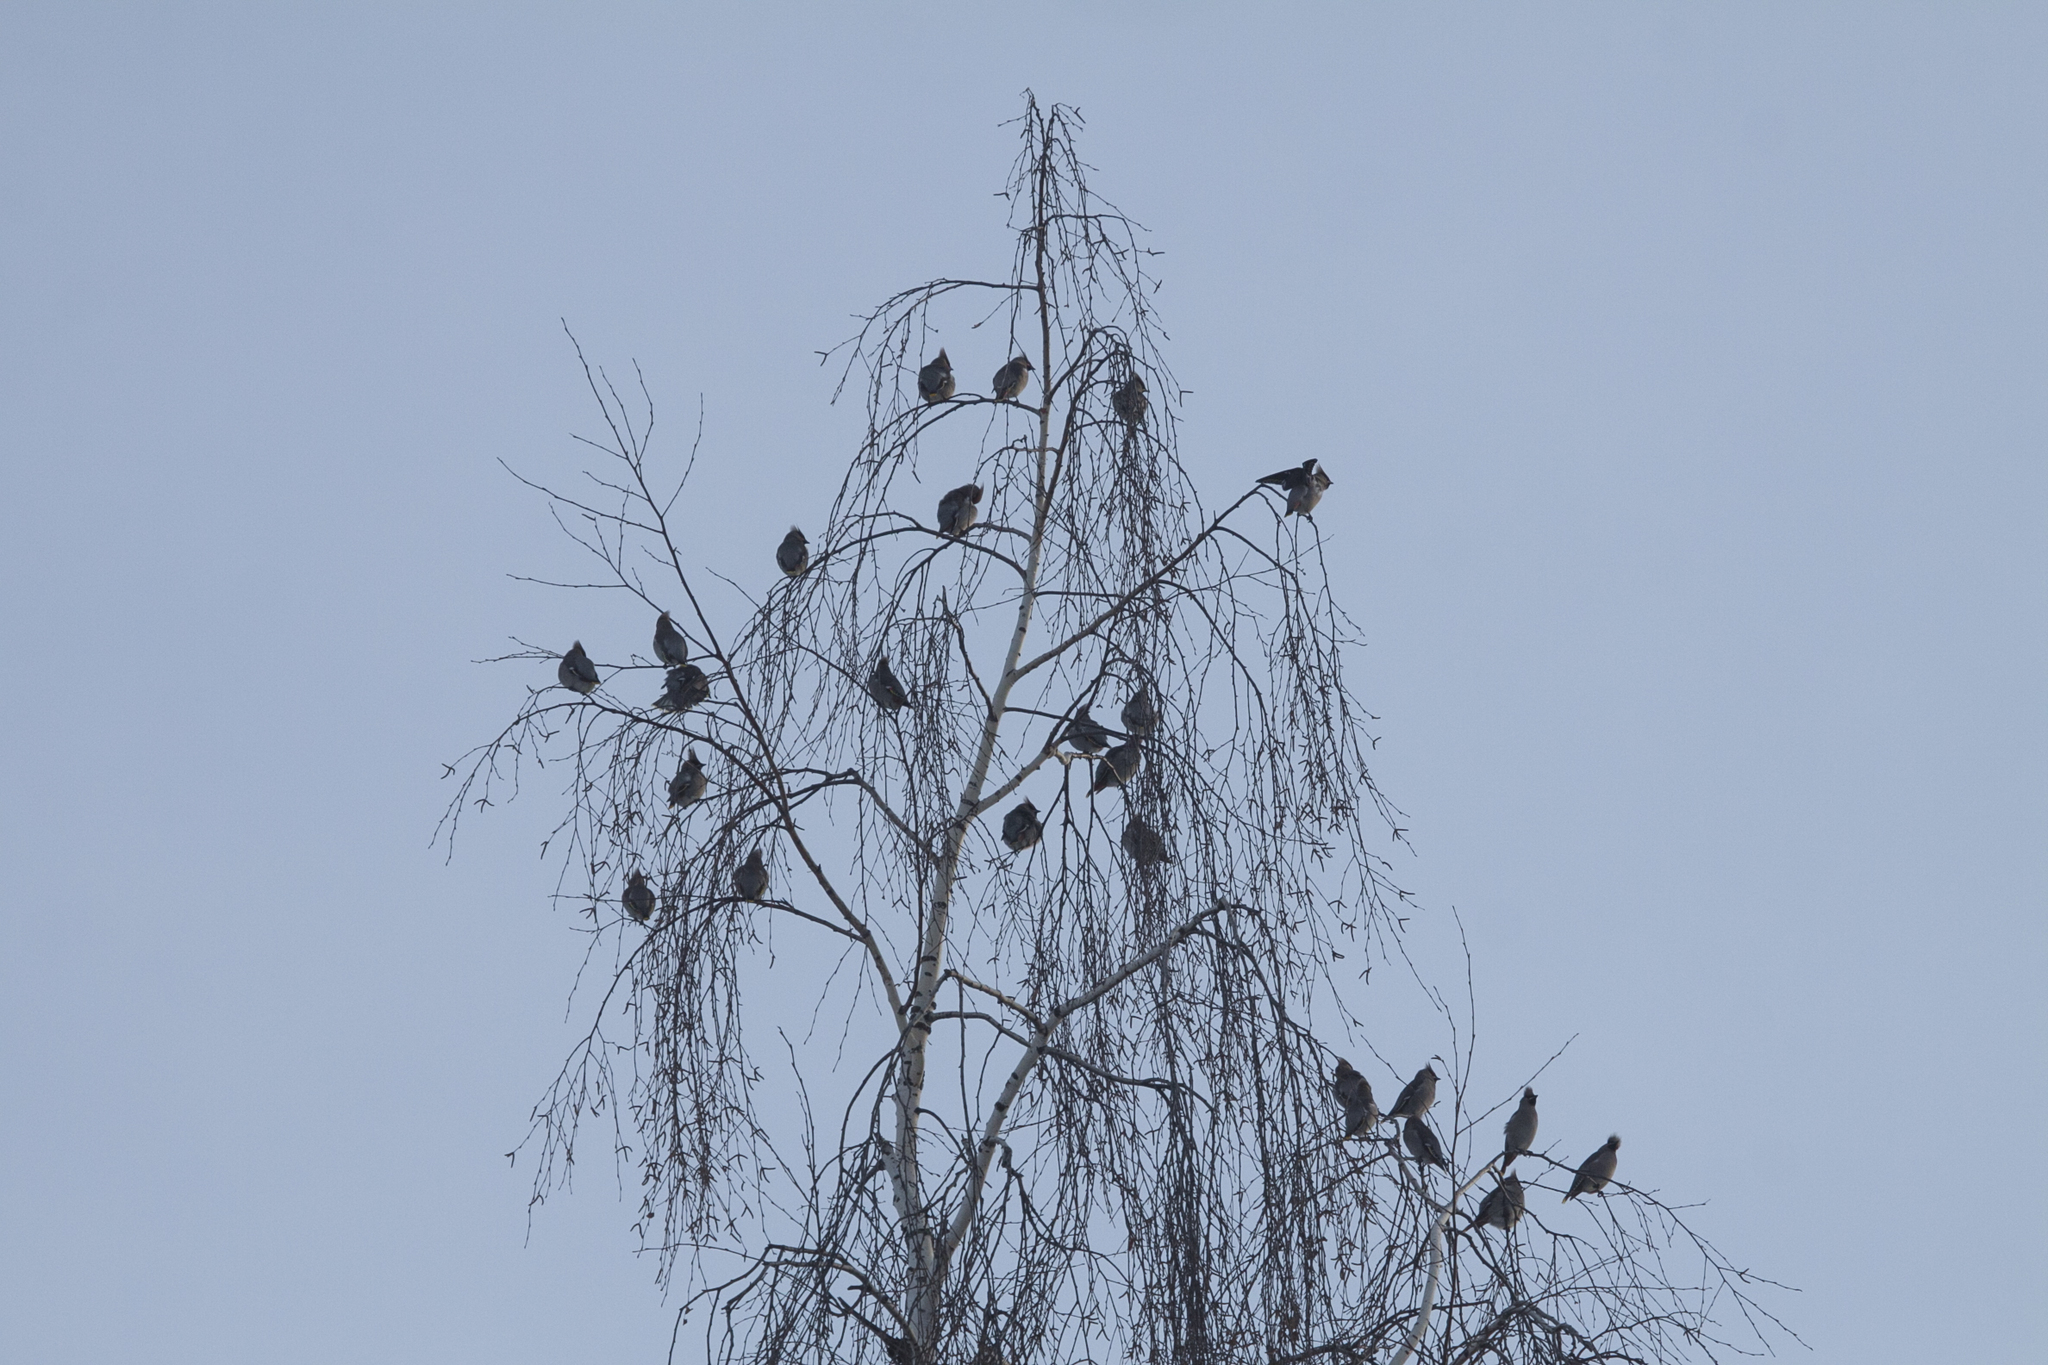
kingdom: Animalia
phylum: Chordata
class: Aves
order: Passeriformes
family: Bombycillidae
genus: Bombycilla
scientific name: Bombycilla garrulus
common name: Bohemian waxwing
